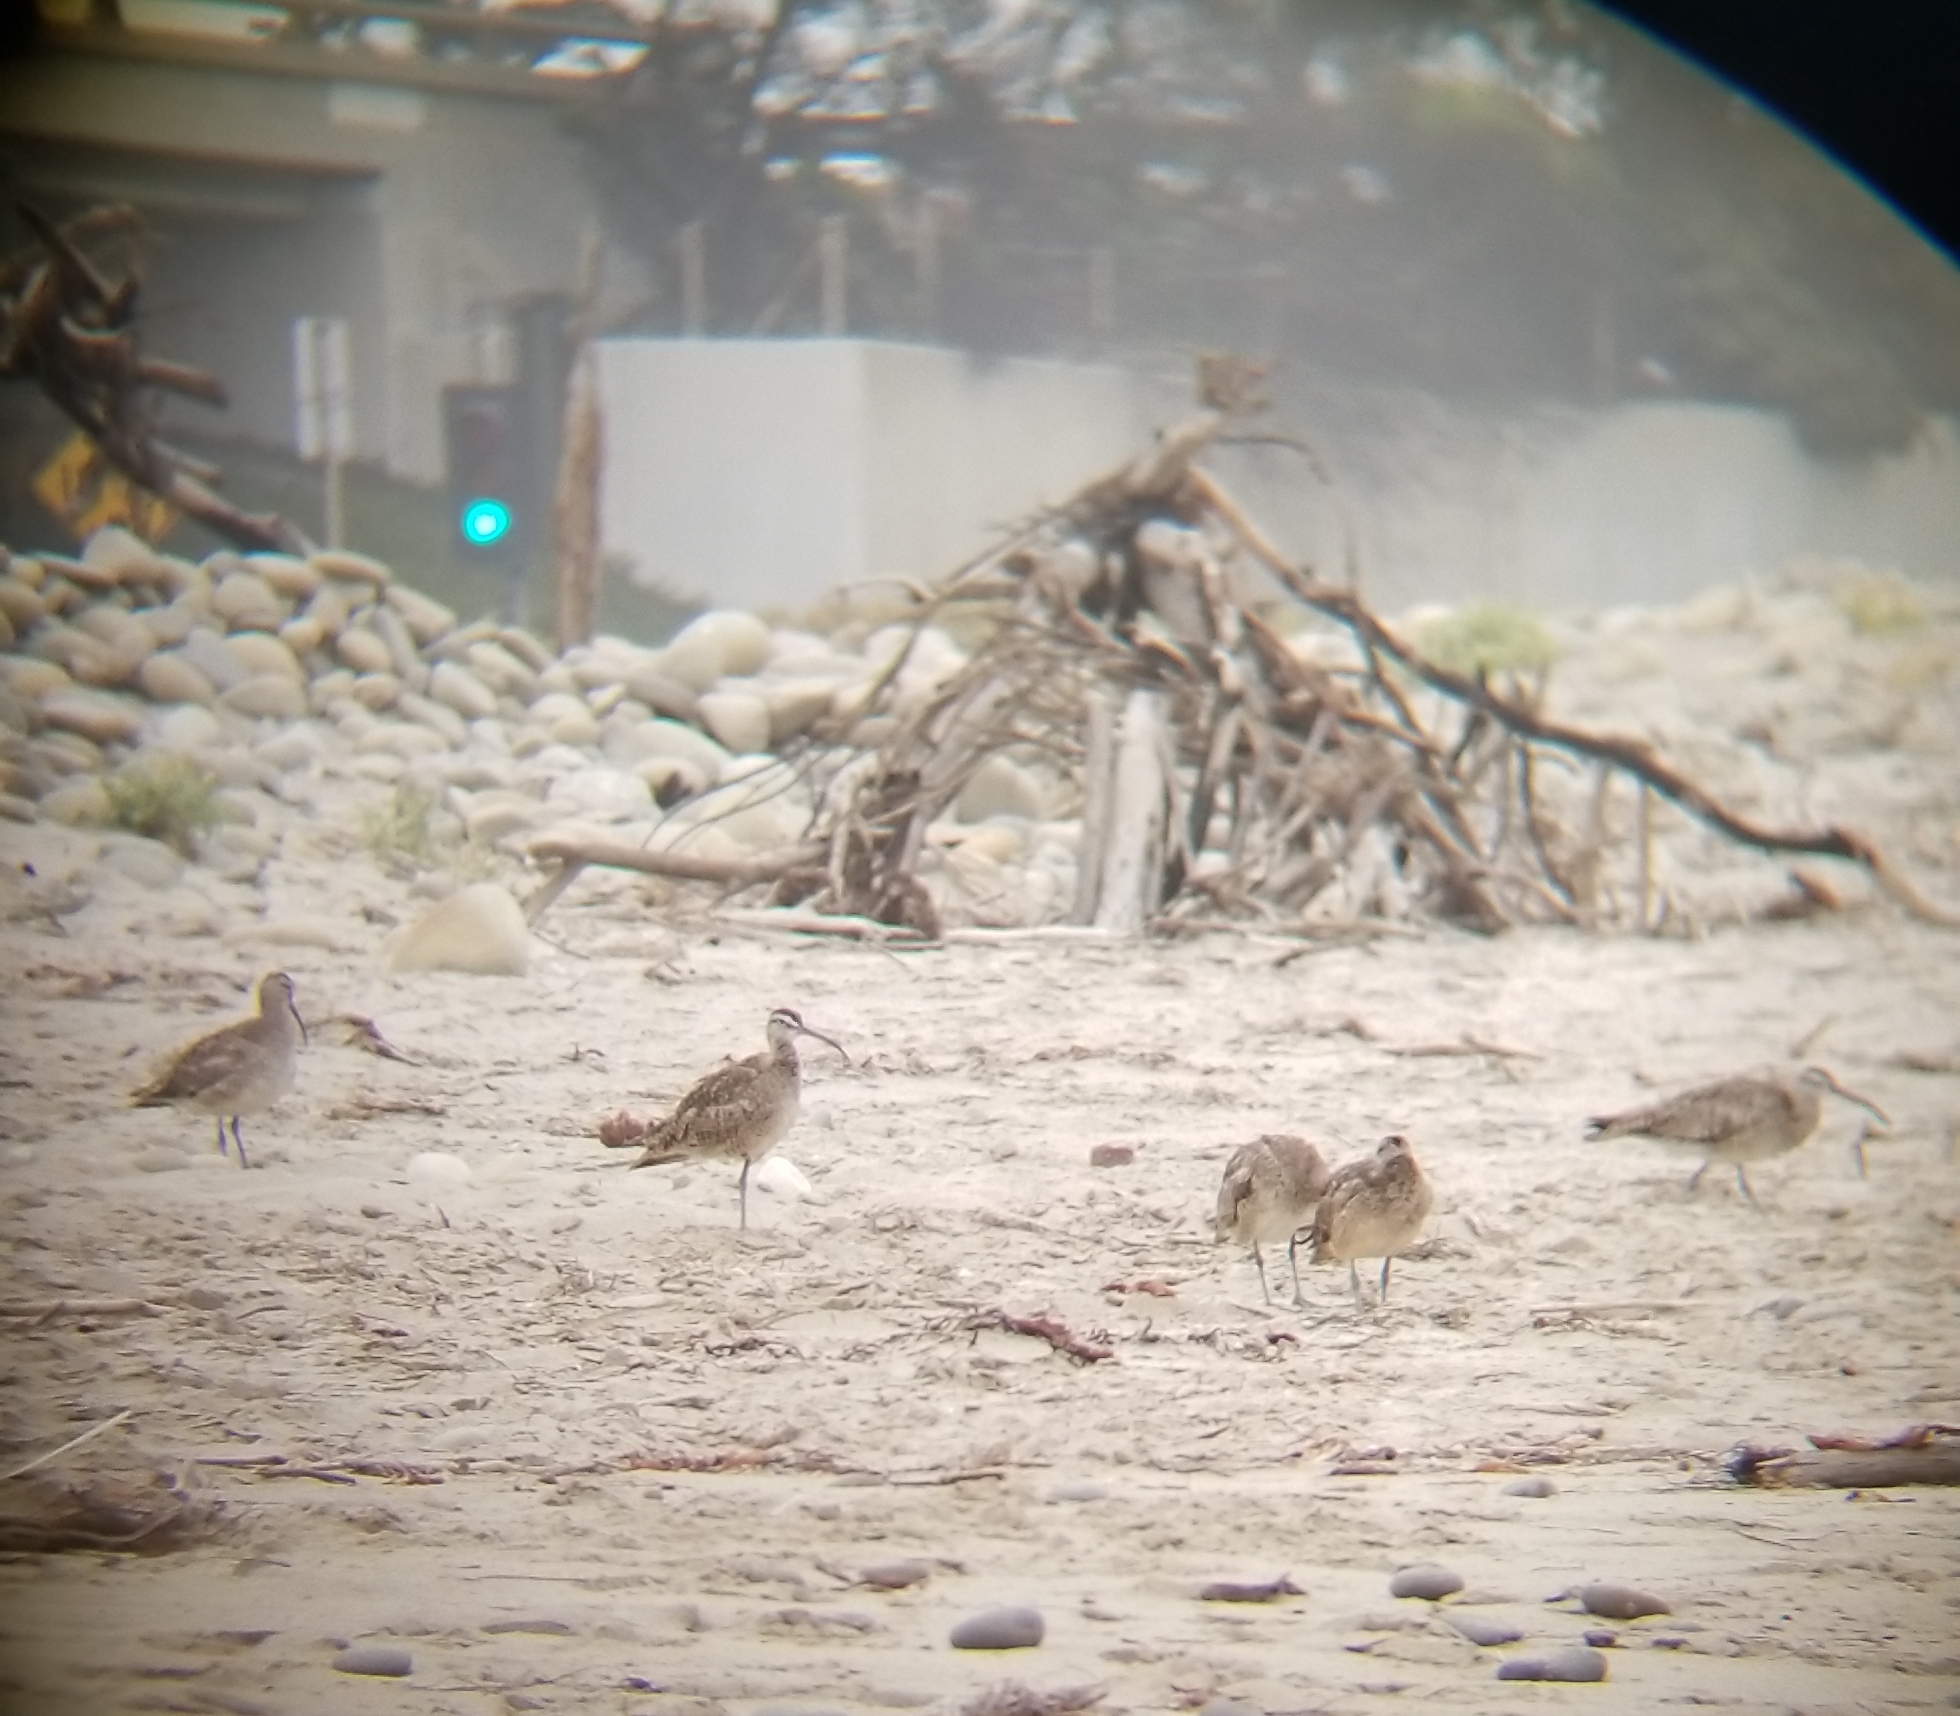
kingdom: Animalia
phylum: Chordata
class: Aves
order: Charadriiformes
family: Scolopacidae
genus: Numenius
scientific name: Numenius phaeopus
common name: Whimbrel
